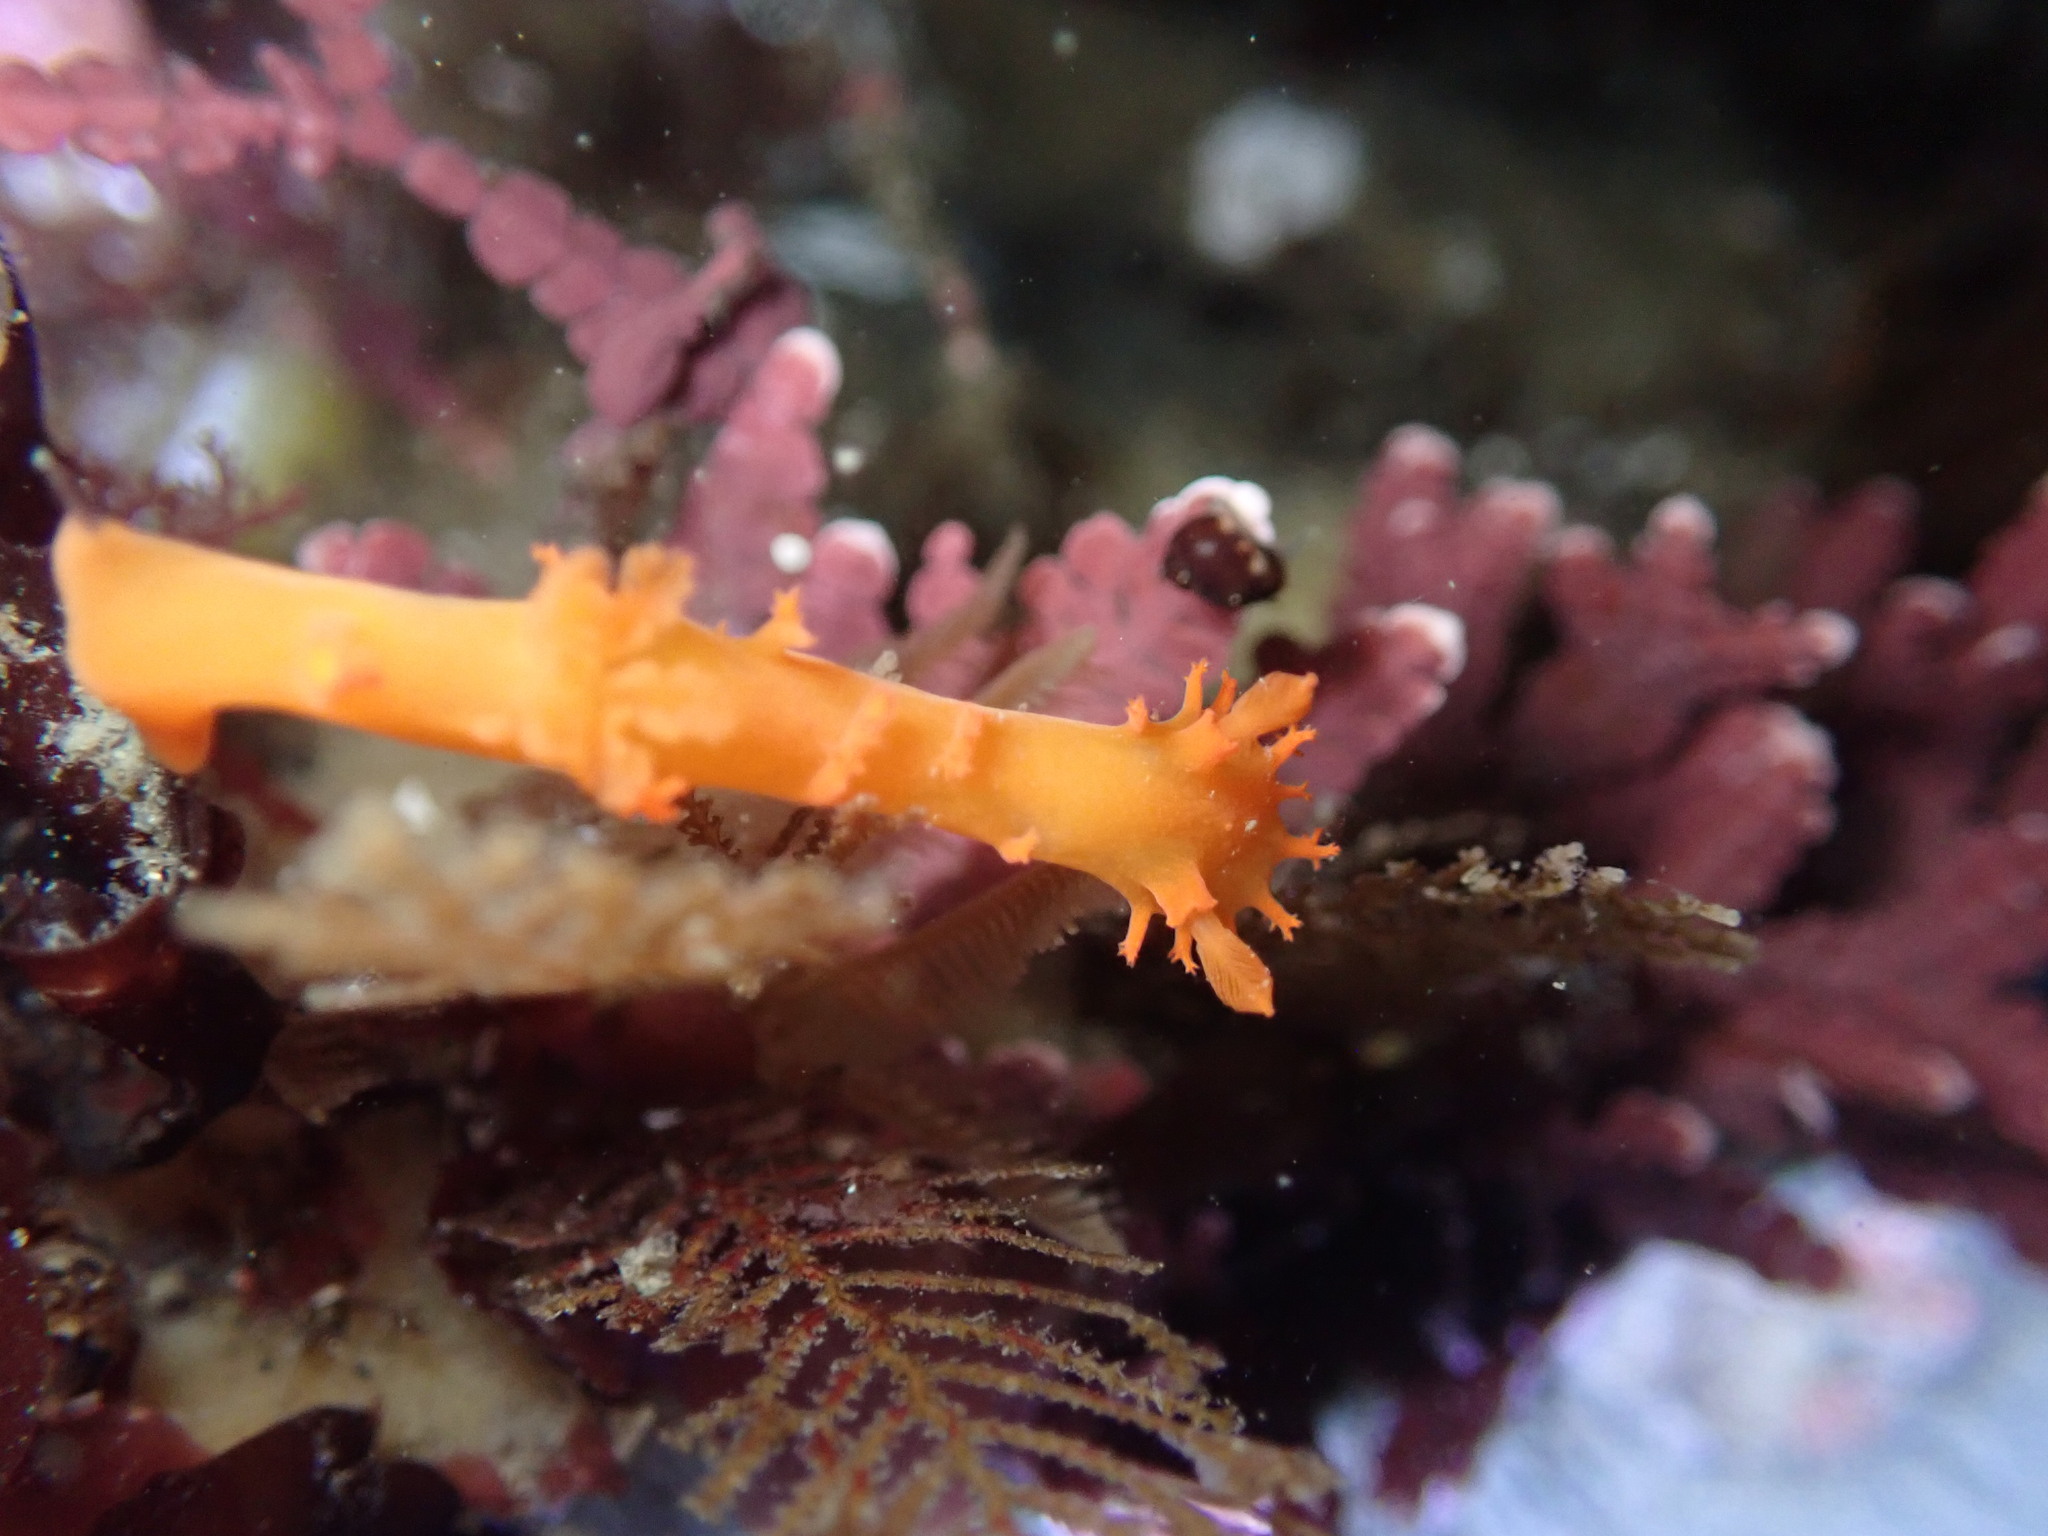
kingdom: Animalia
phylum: Mollusca
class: Gastropoda
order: Nudibranchia
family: Polyceridae
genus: Triopha
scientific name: Triopha maculata
